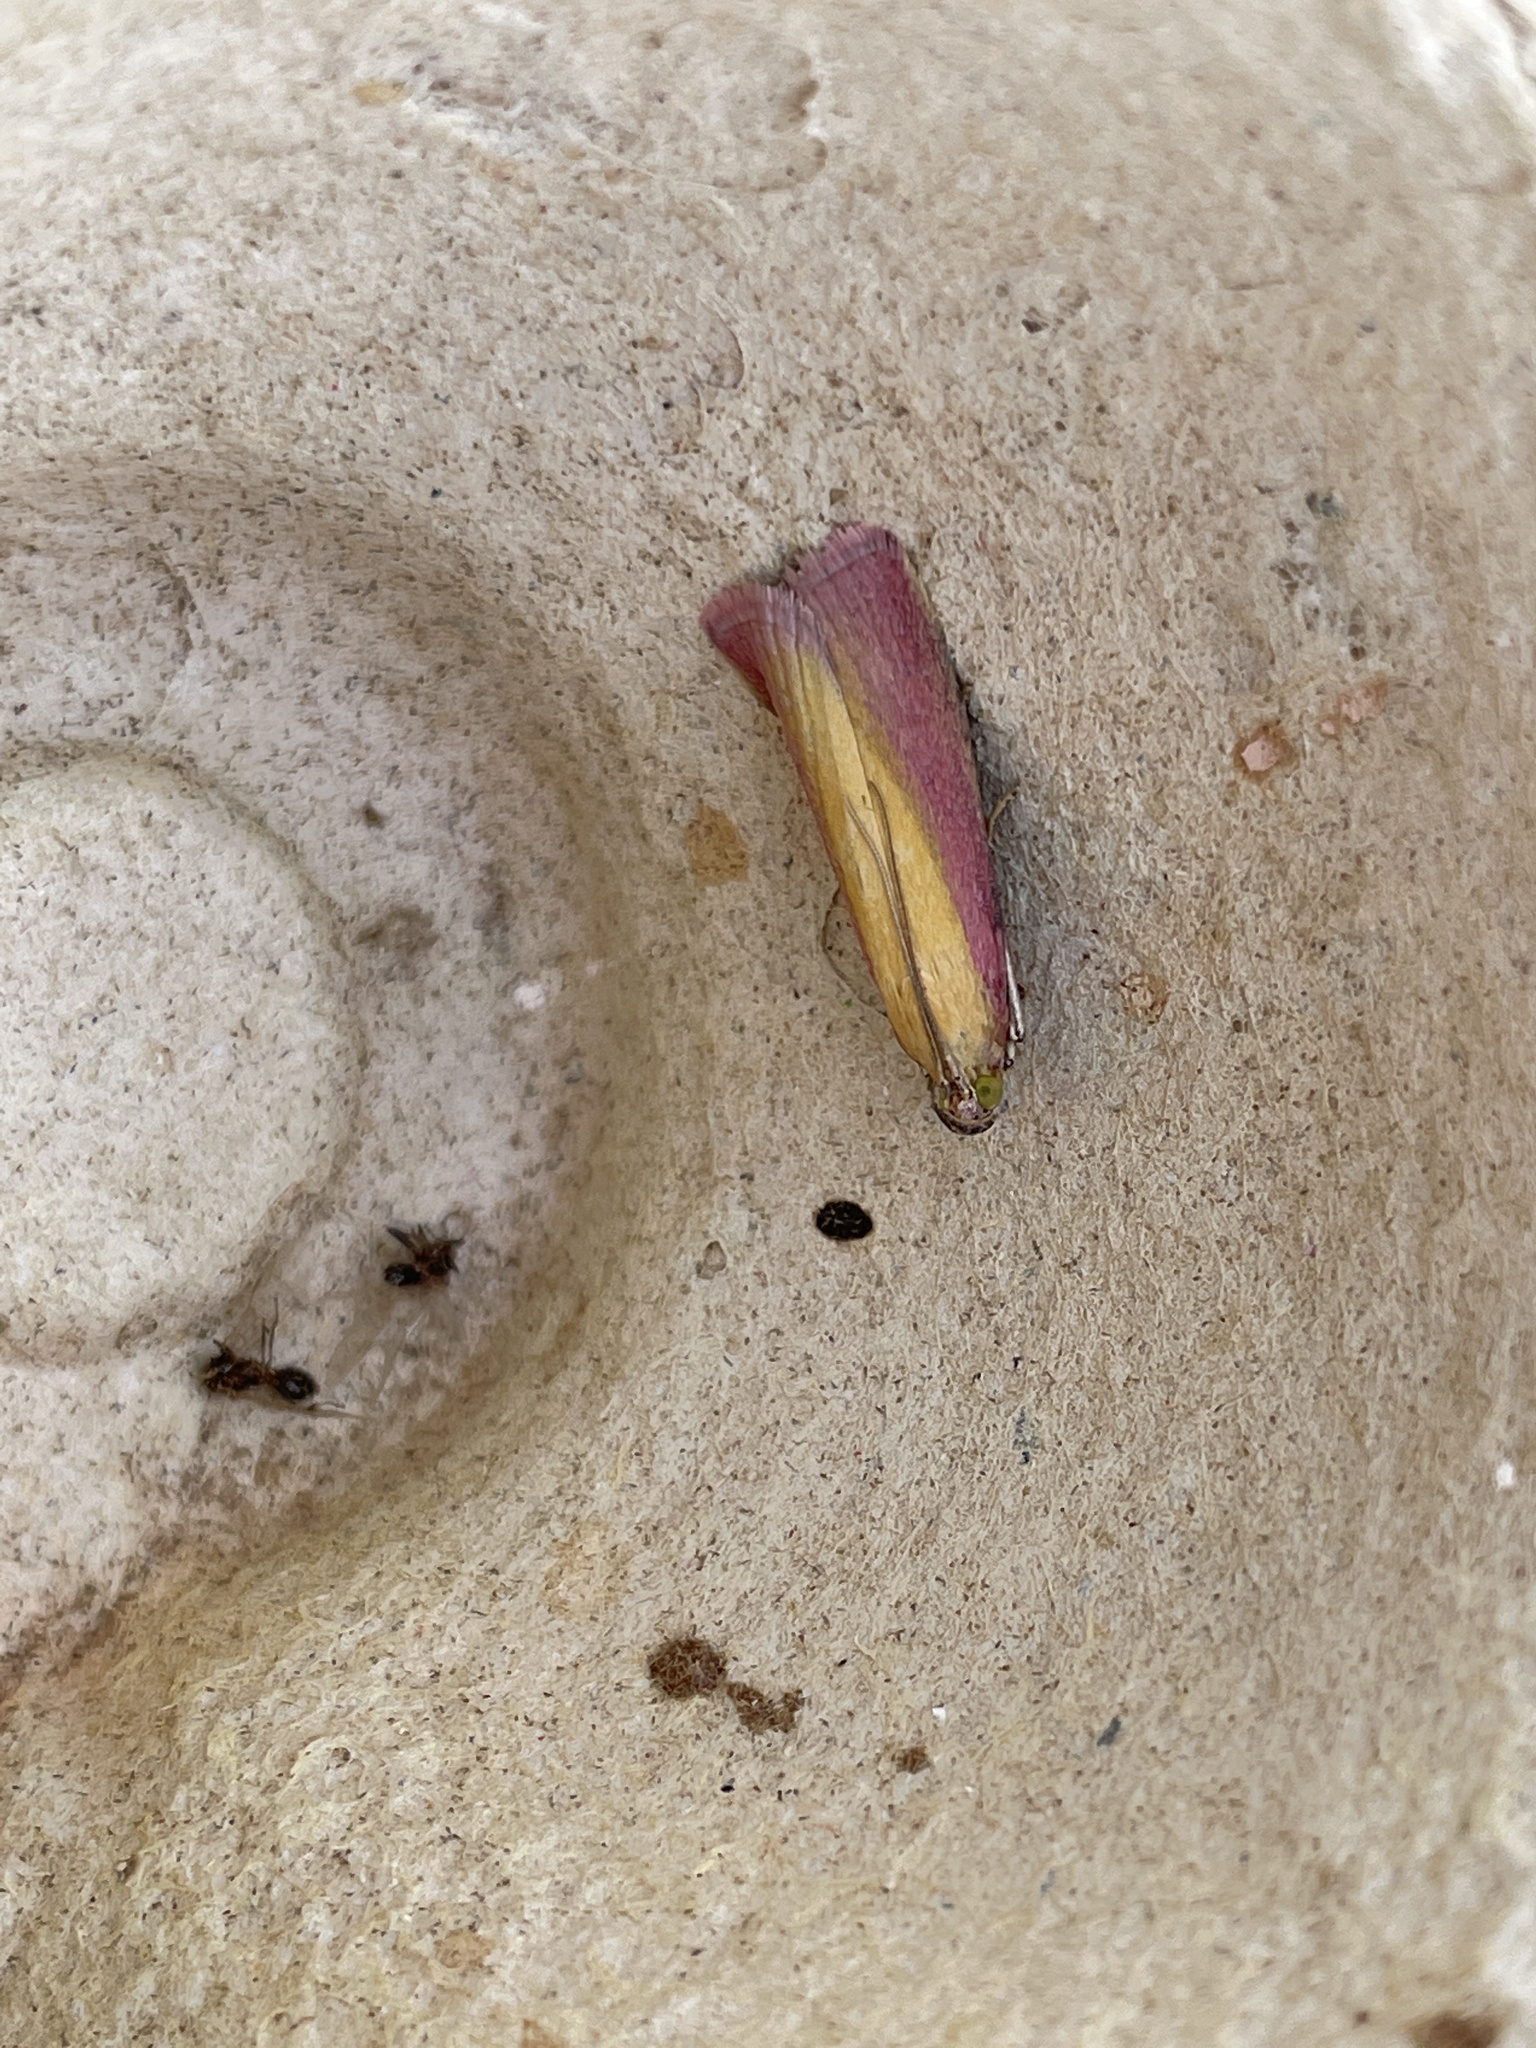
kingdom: Animalia
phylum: Arthropoda
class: Insecta
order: Lepidoptera
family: Pyralidae
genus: Oncocera
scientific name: Oncocera semirubella
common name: Rosy-striped knot-horn
